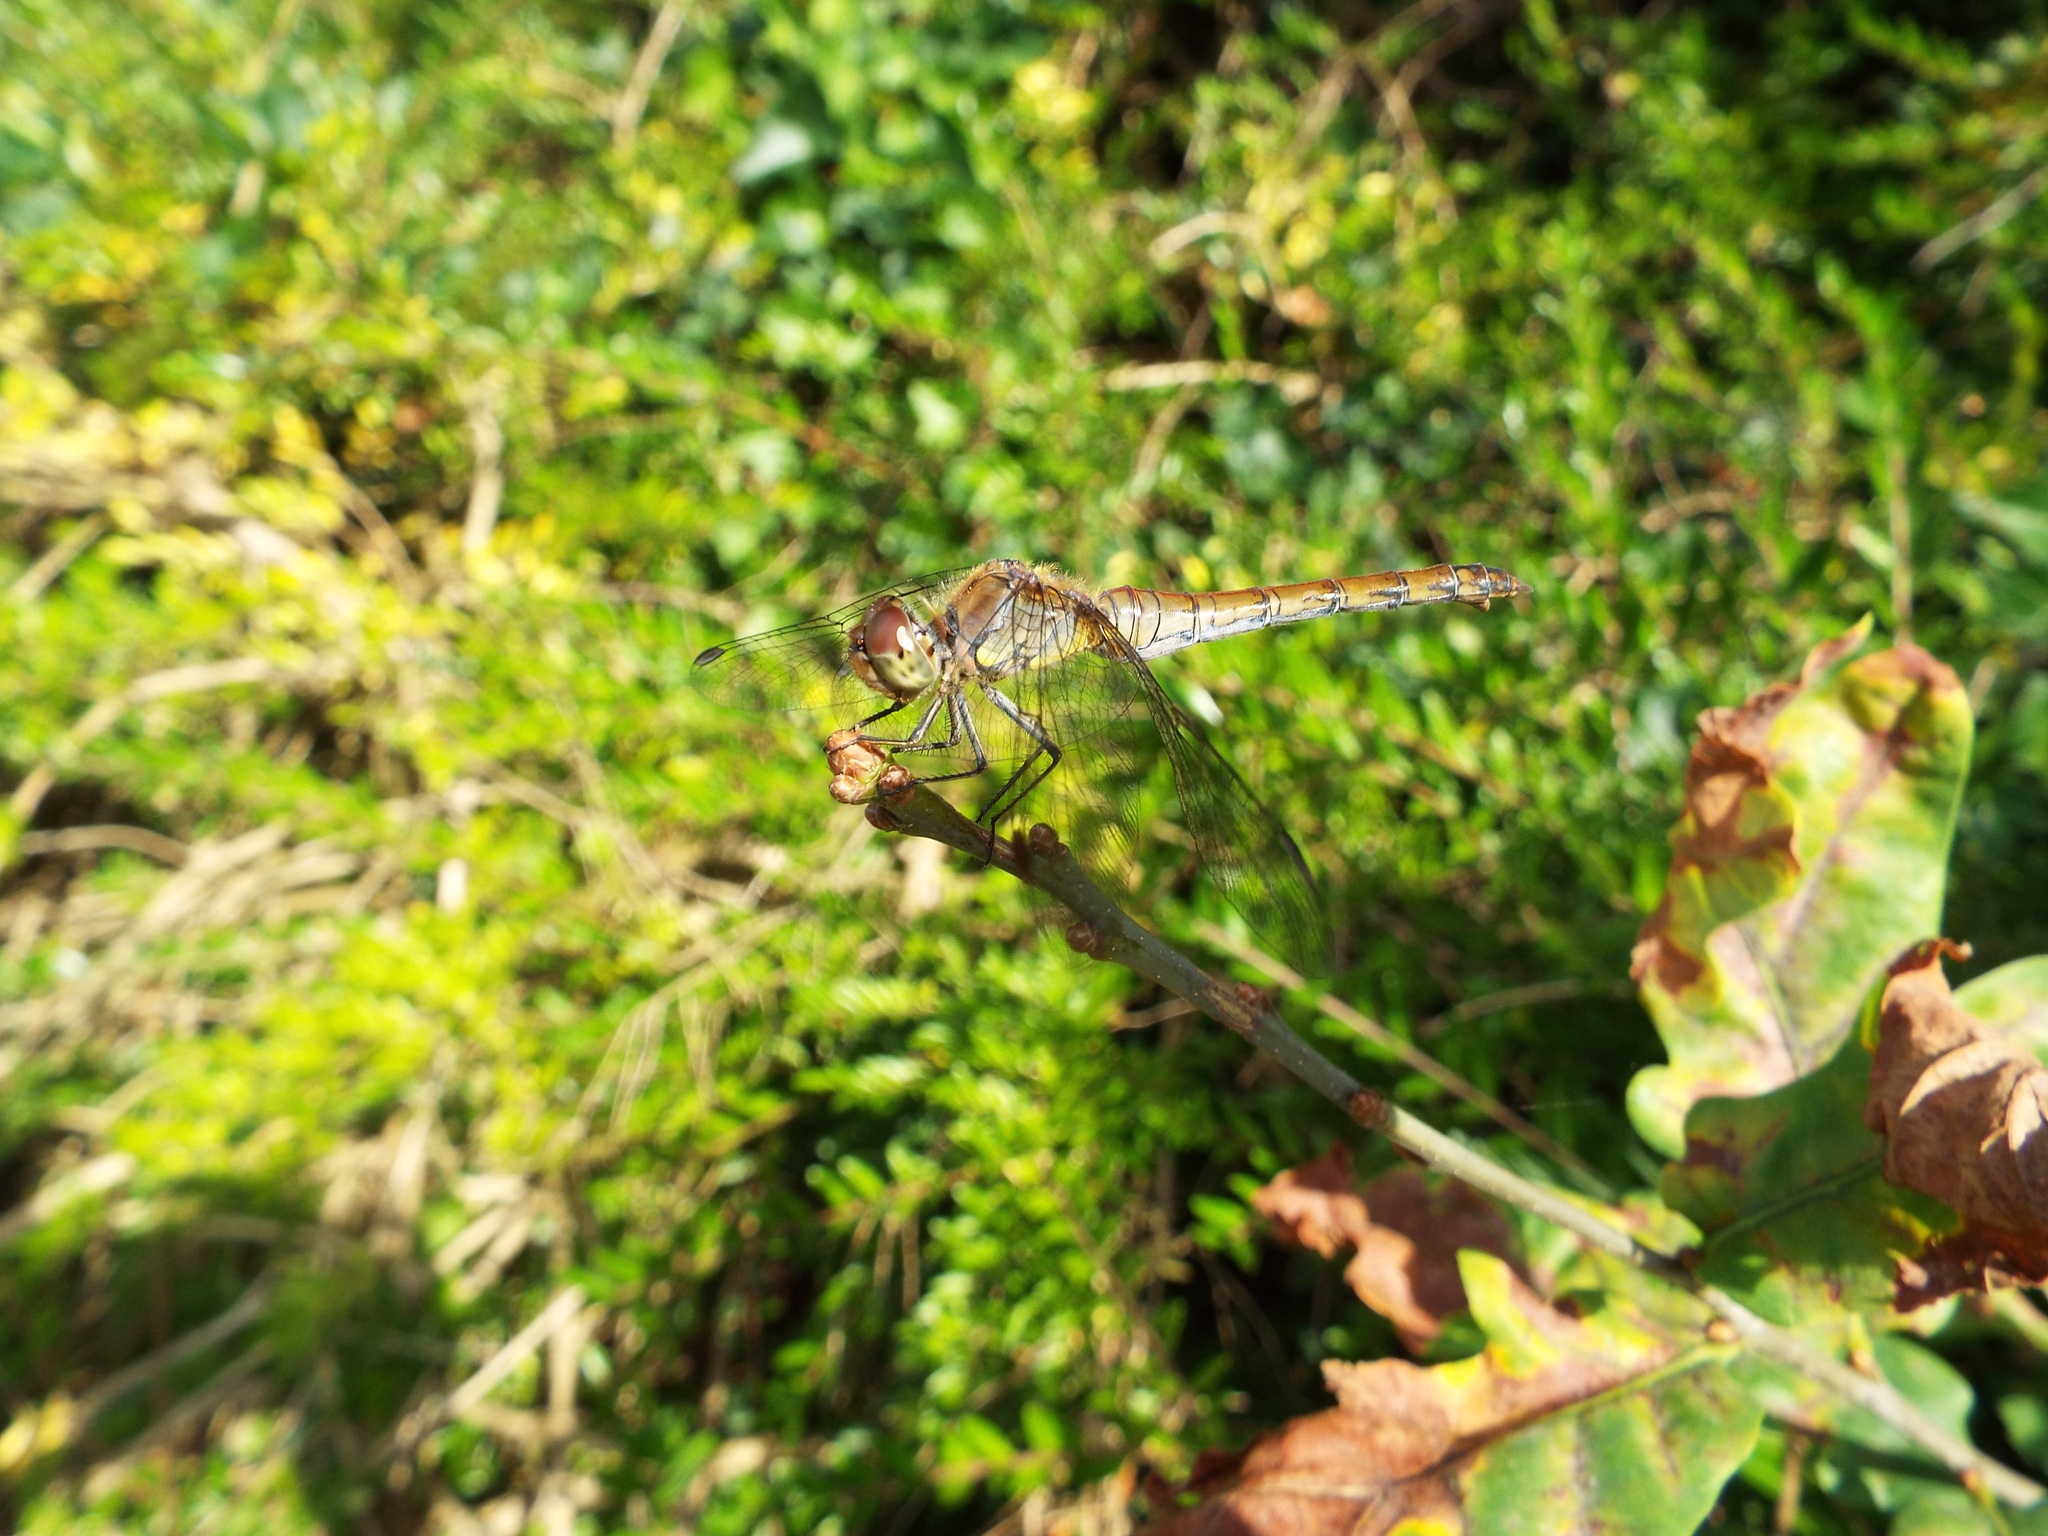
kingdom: Animalia
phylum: Arthropoda
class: Insecta
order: Odonata
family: Libellulidae
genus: Sympetrum
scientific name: Sympetrum striolatum
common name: Common darter
